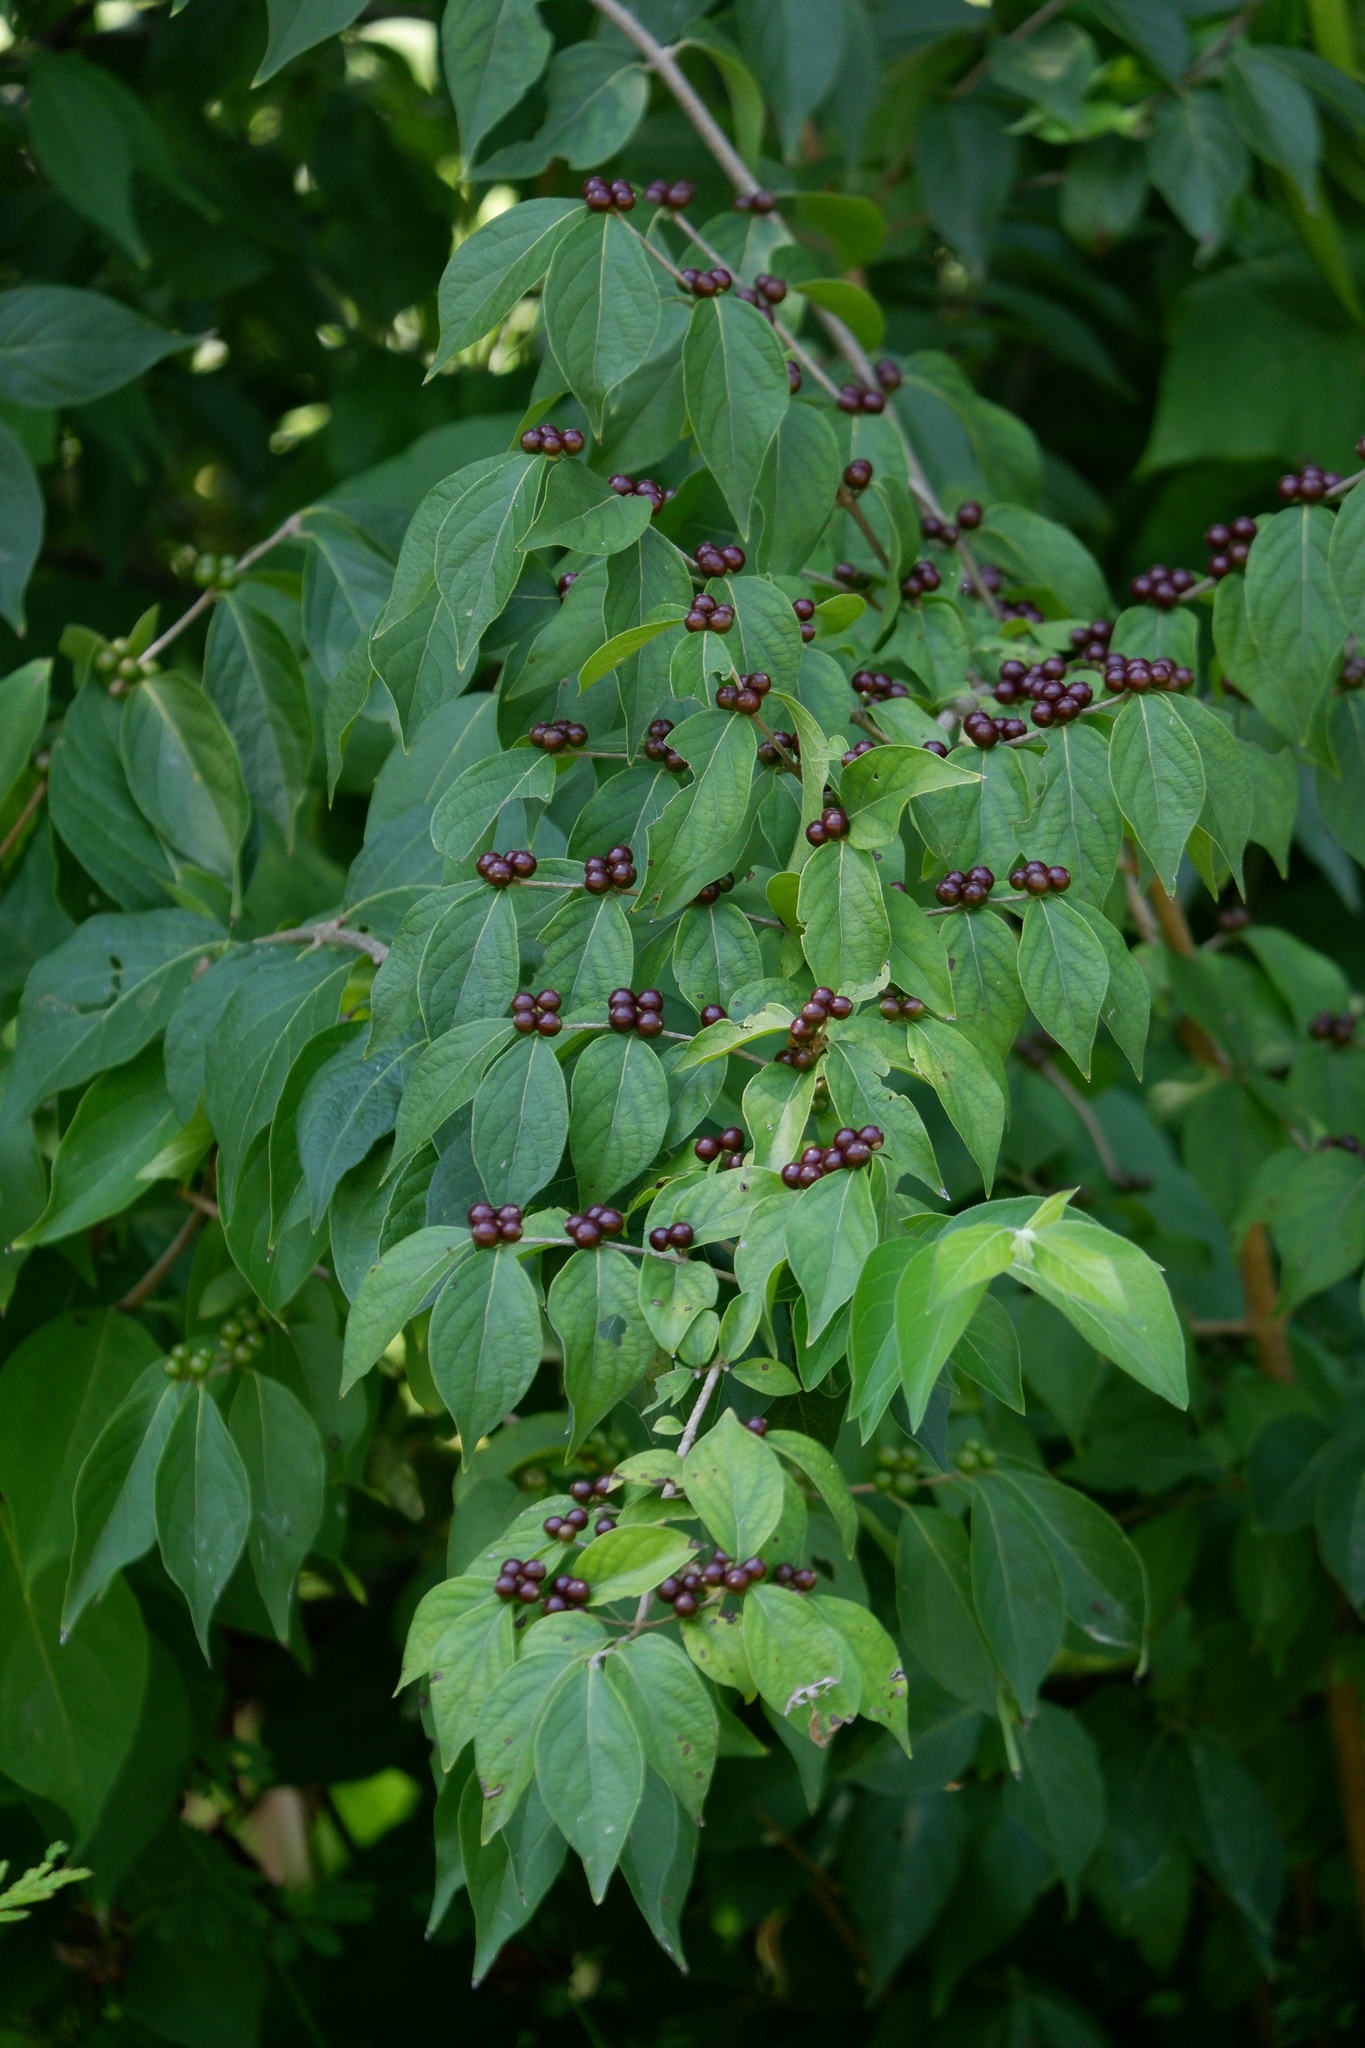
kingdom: Plantae
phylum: Tracheophyta
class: Magnoliopsida
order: Dipsacales
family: Caprifoliaceae
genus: Lonicera
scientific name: Lonicera maackii
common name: Amur honeysuckle
